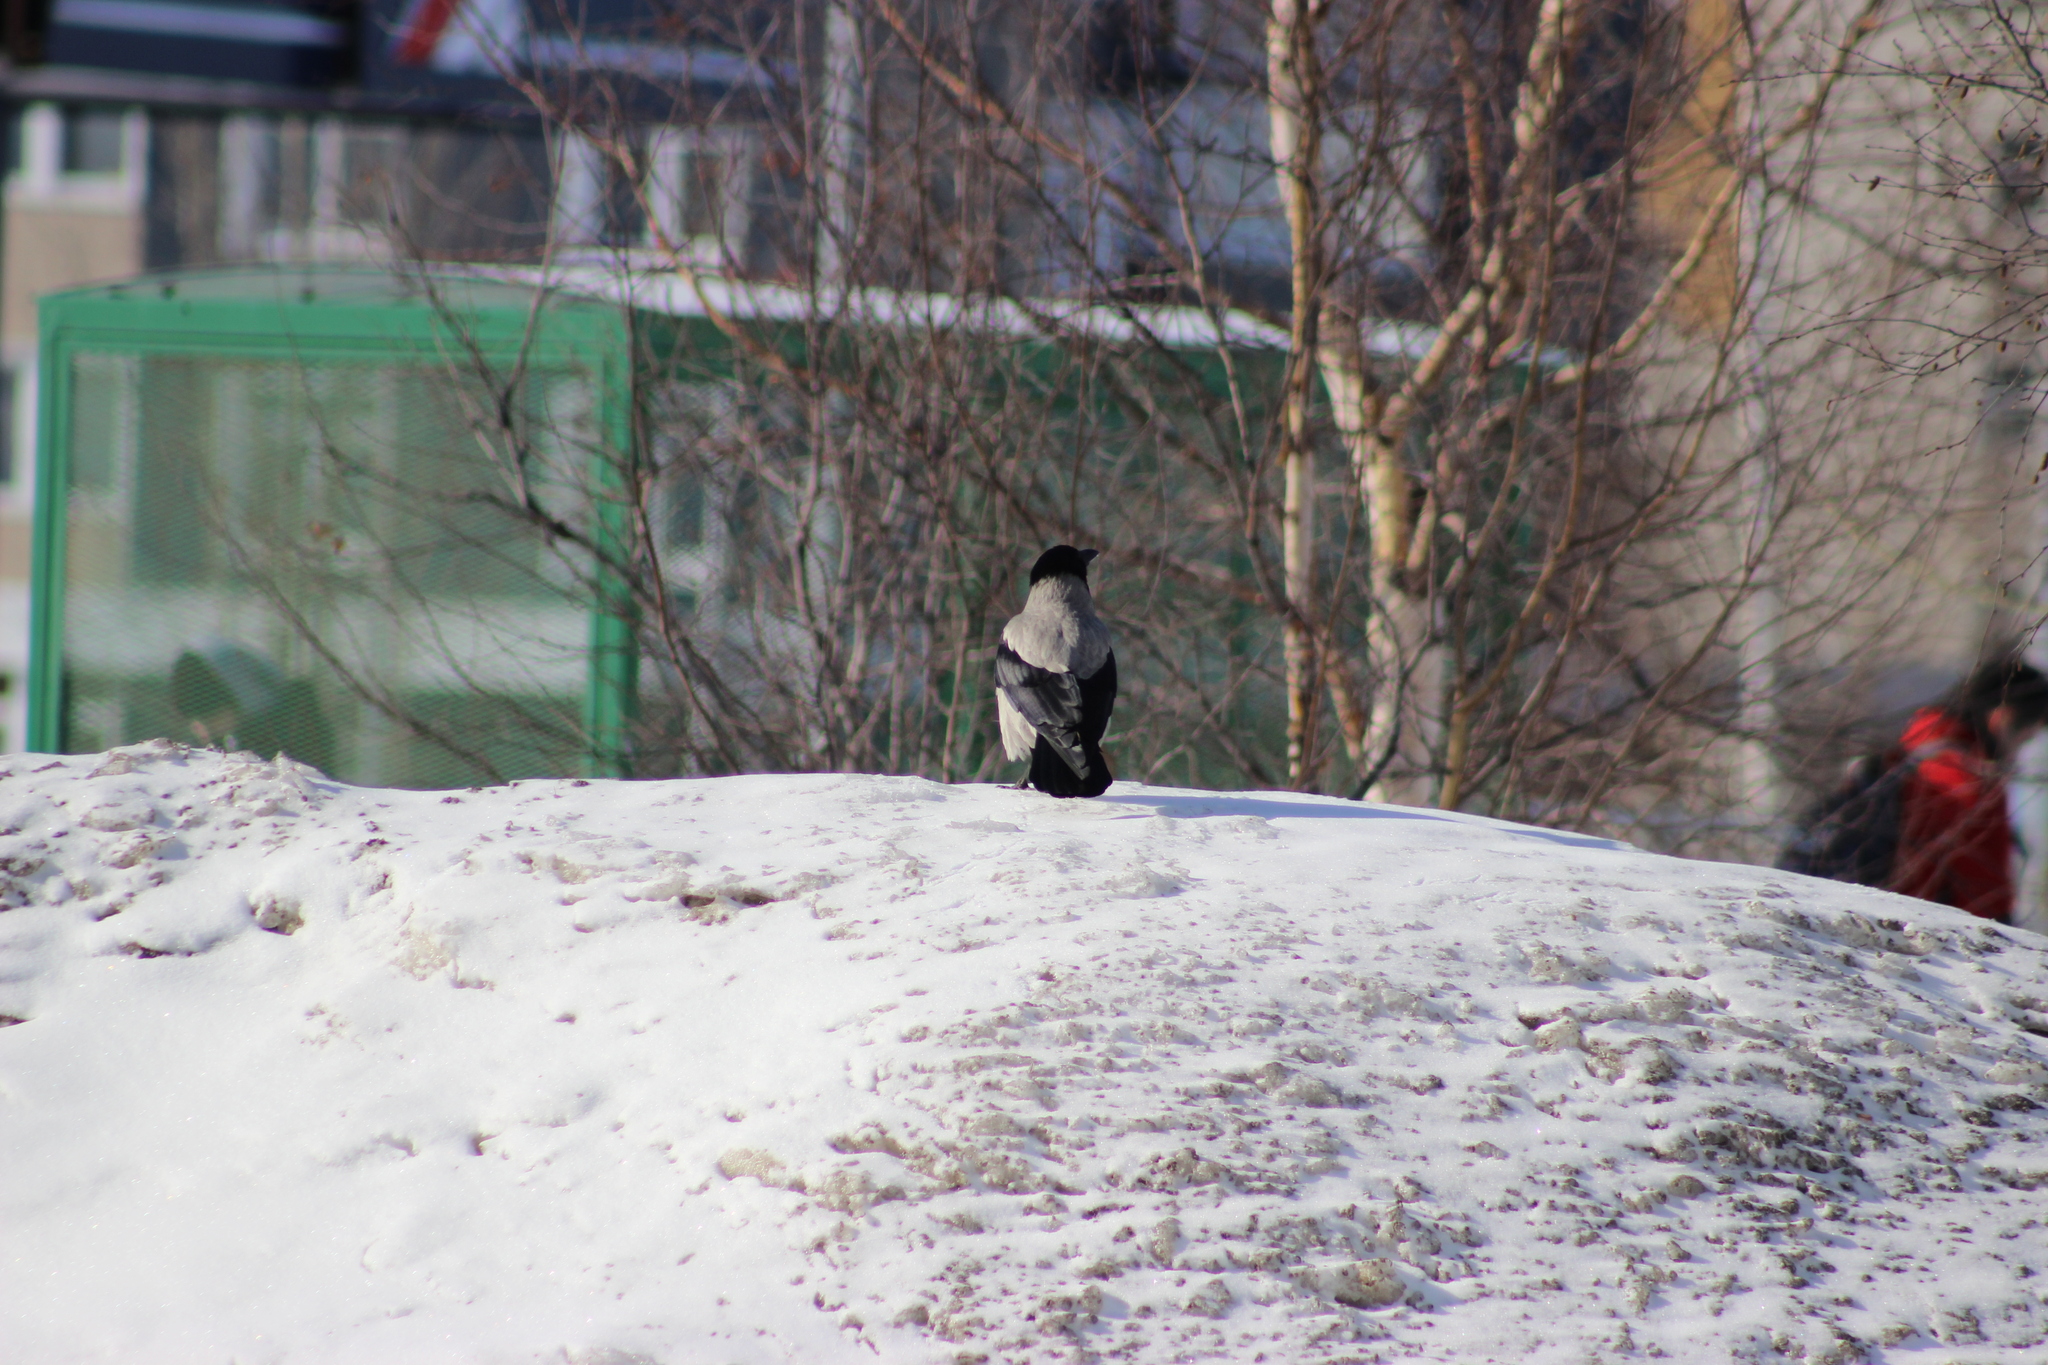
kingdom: Animalia
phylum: Chordata
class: Aves
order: Passeriformes
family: Corvidae
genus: Corvus
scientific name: Corvus cornix
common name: Hooded crow
